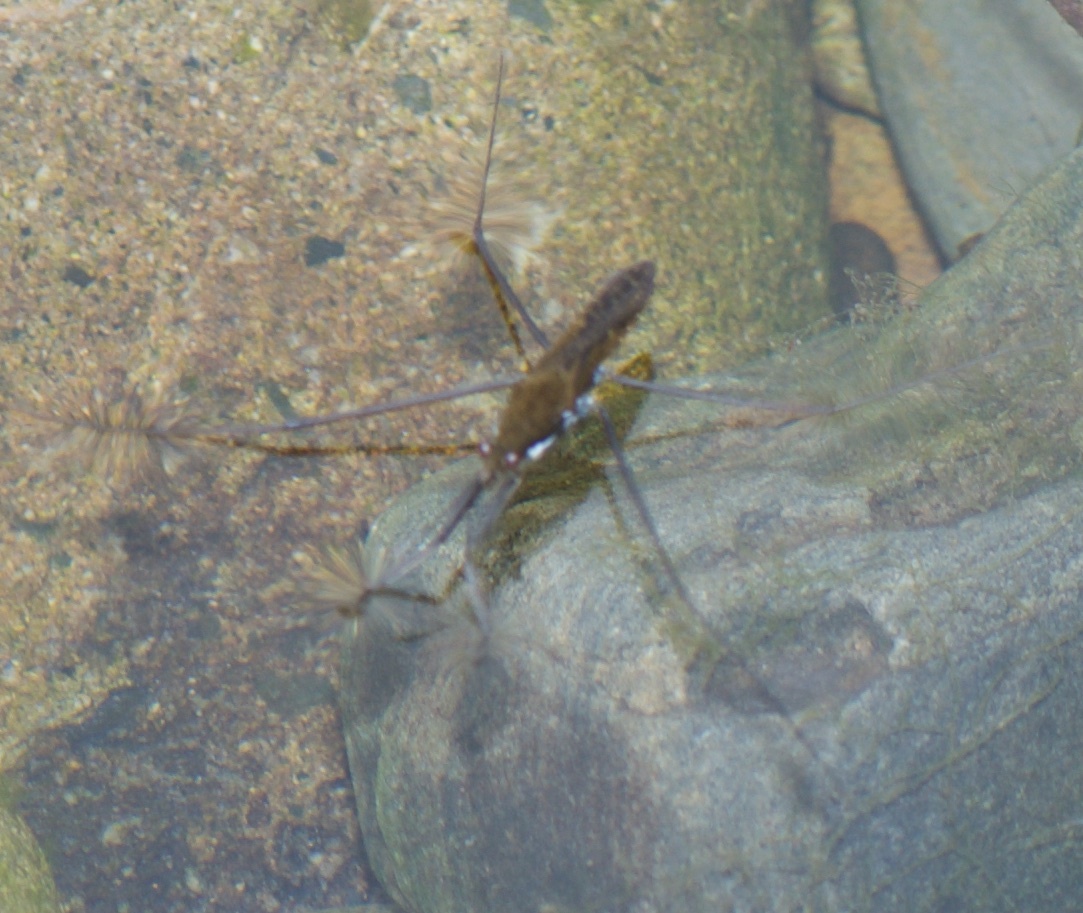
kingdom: Animalia
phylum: Arthropoda
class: Insecta
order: Hemiptera
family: Gerridae
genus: Aquarius
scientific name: Aquarius remigis
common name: Common water strider
